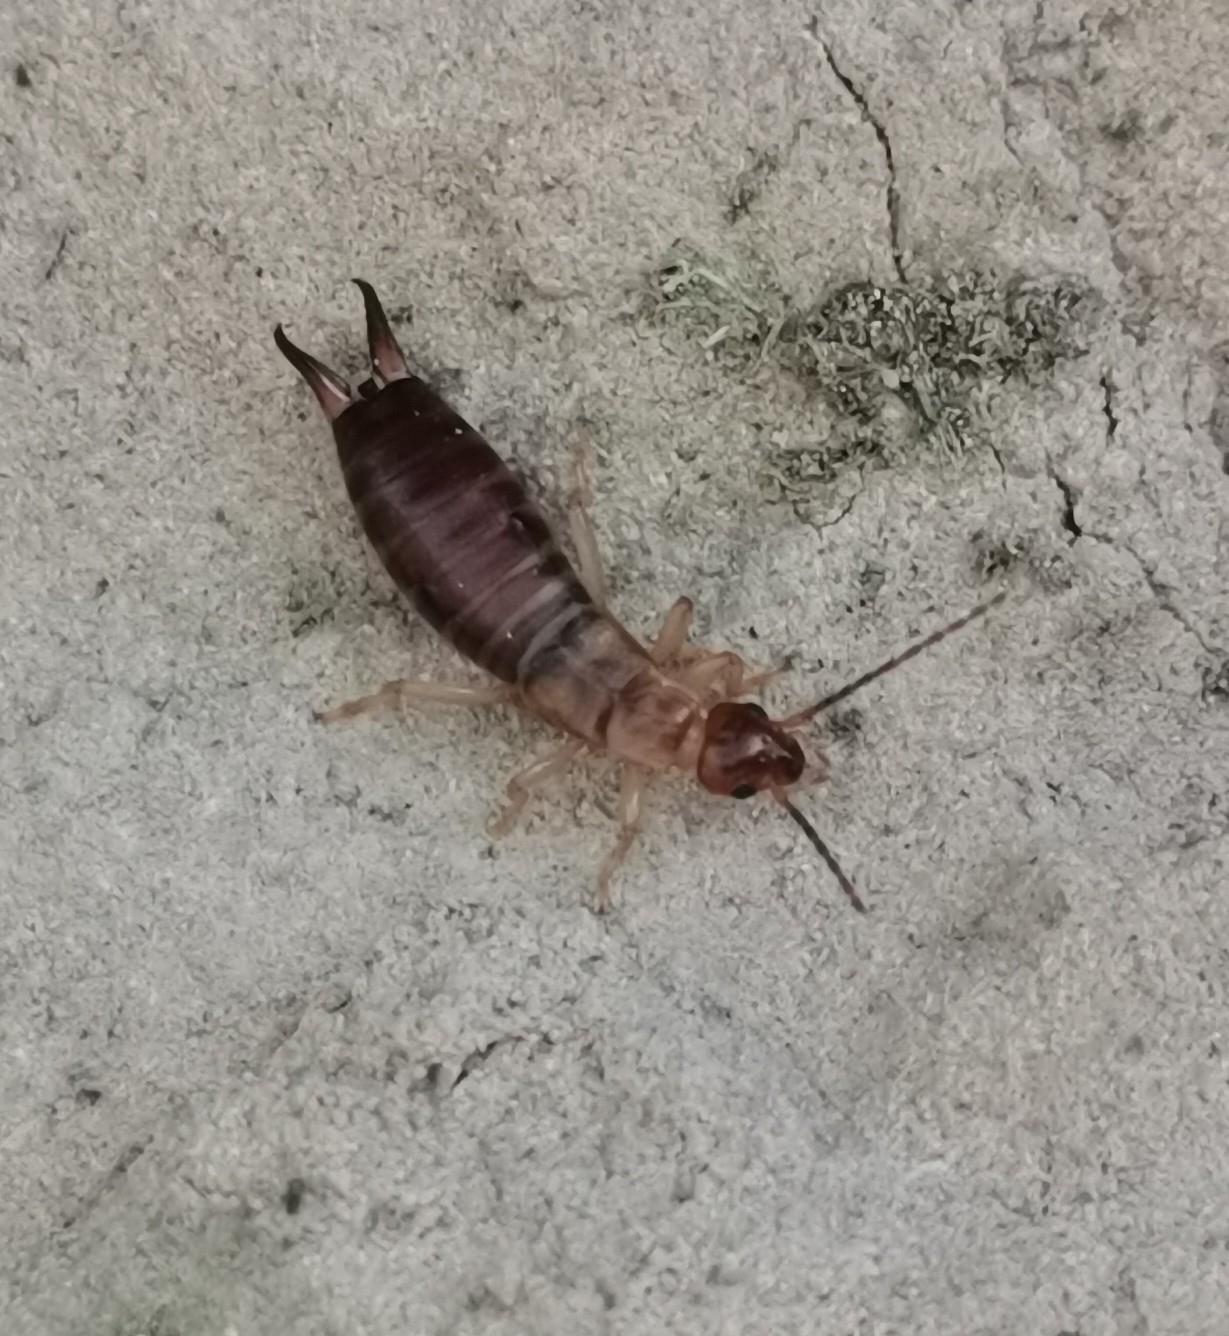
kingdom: Animalia
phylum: Arthropoda
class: Insecta
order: Dermaptera
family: Forficulidae
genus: Forficula
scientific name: Forficula decipiens
